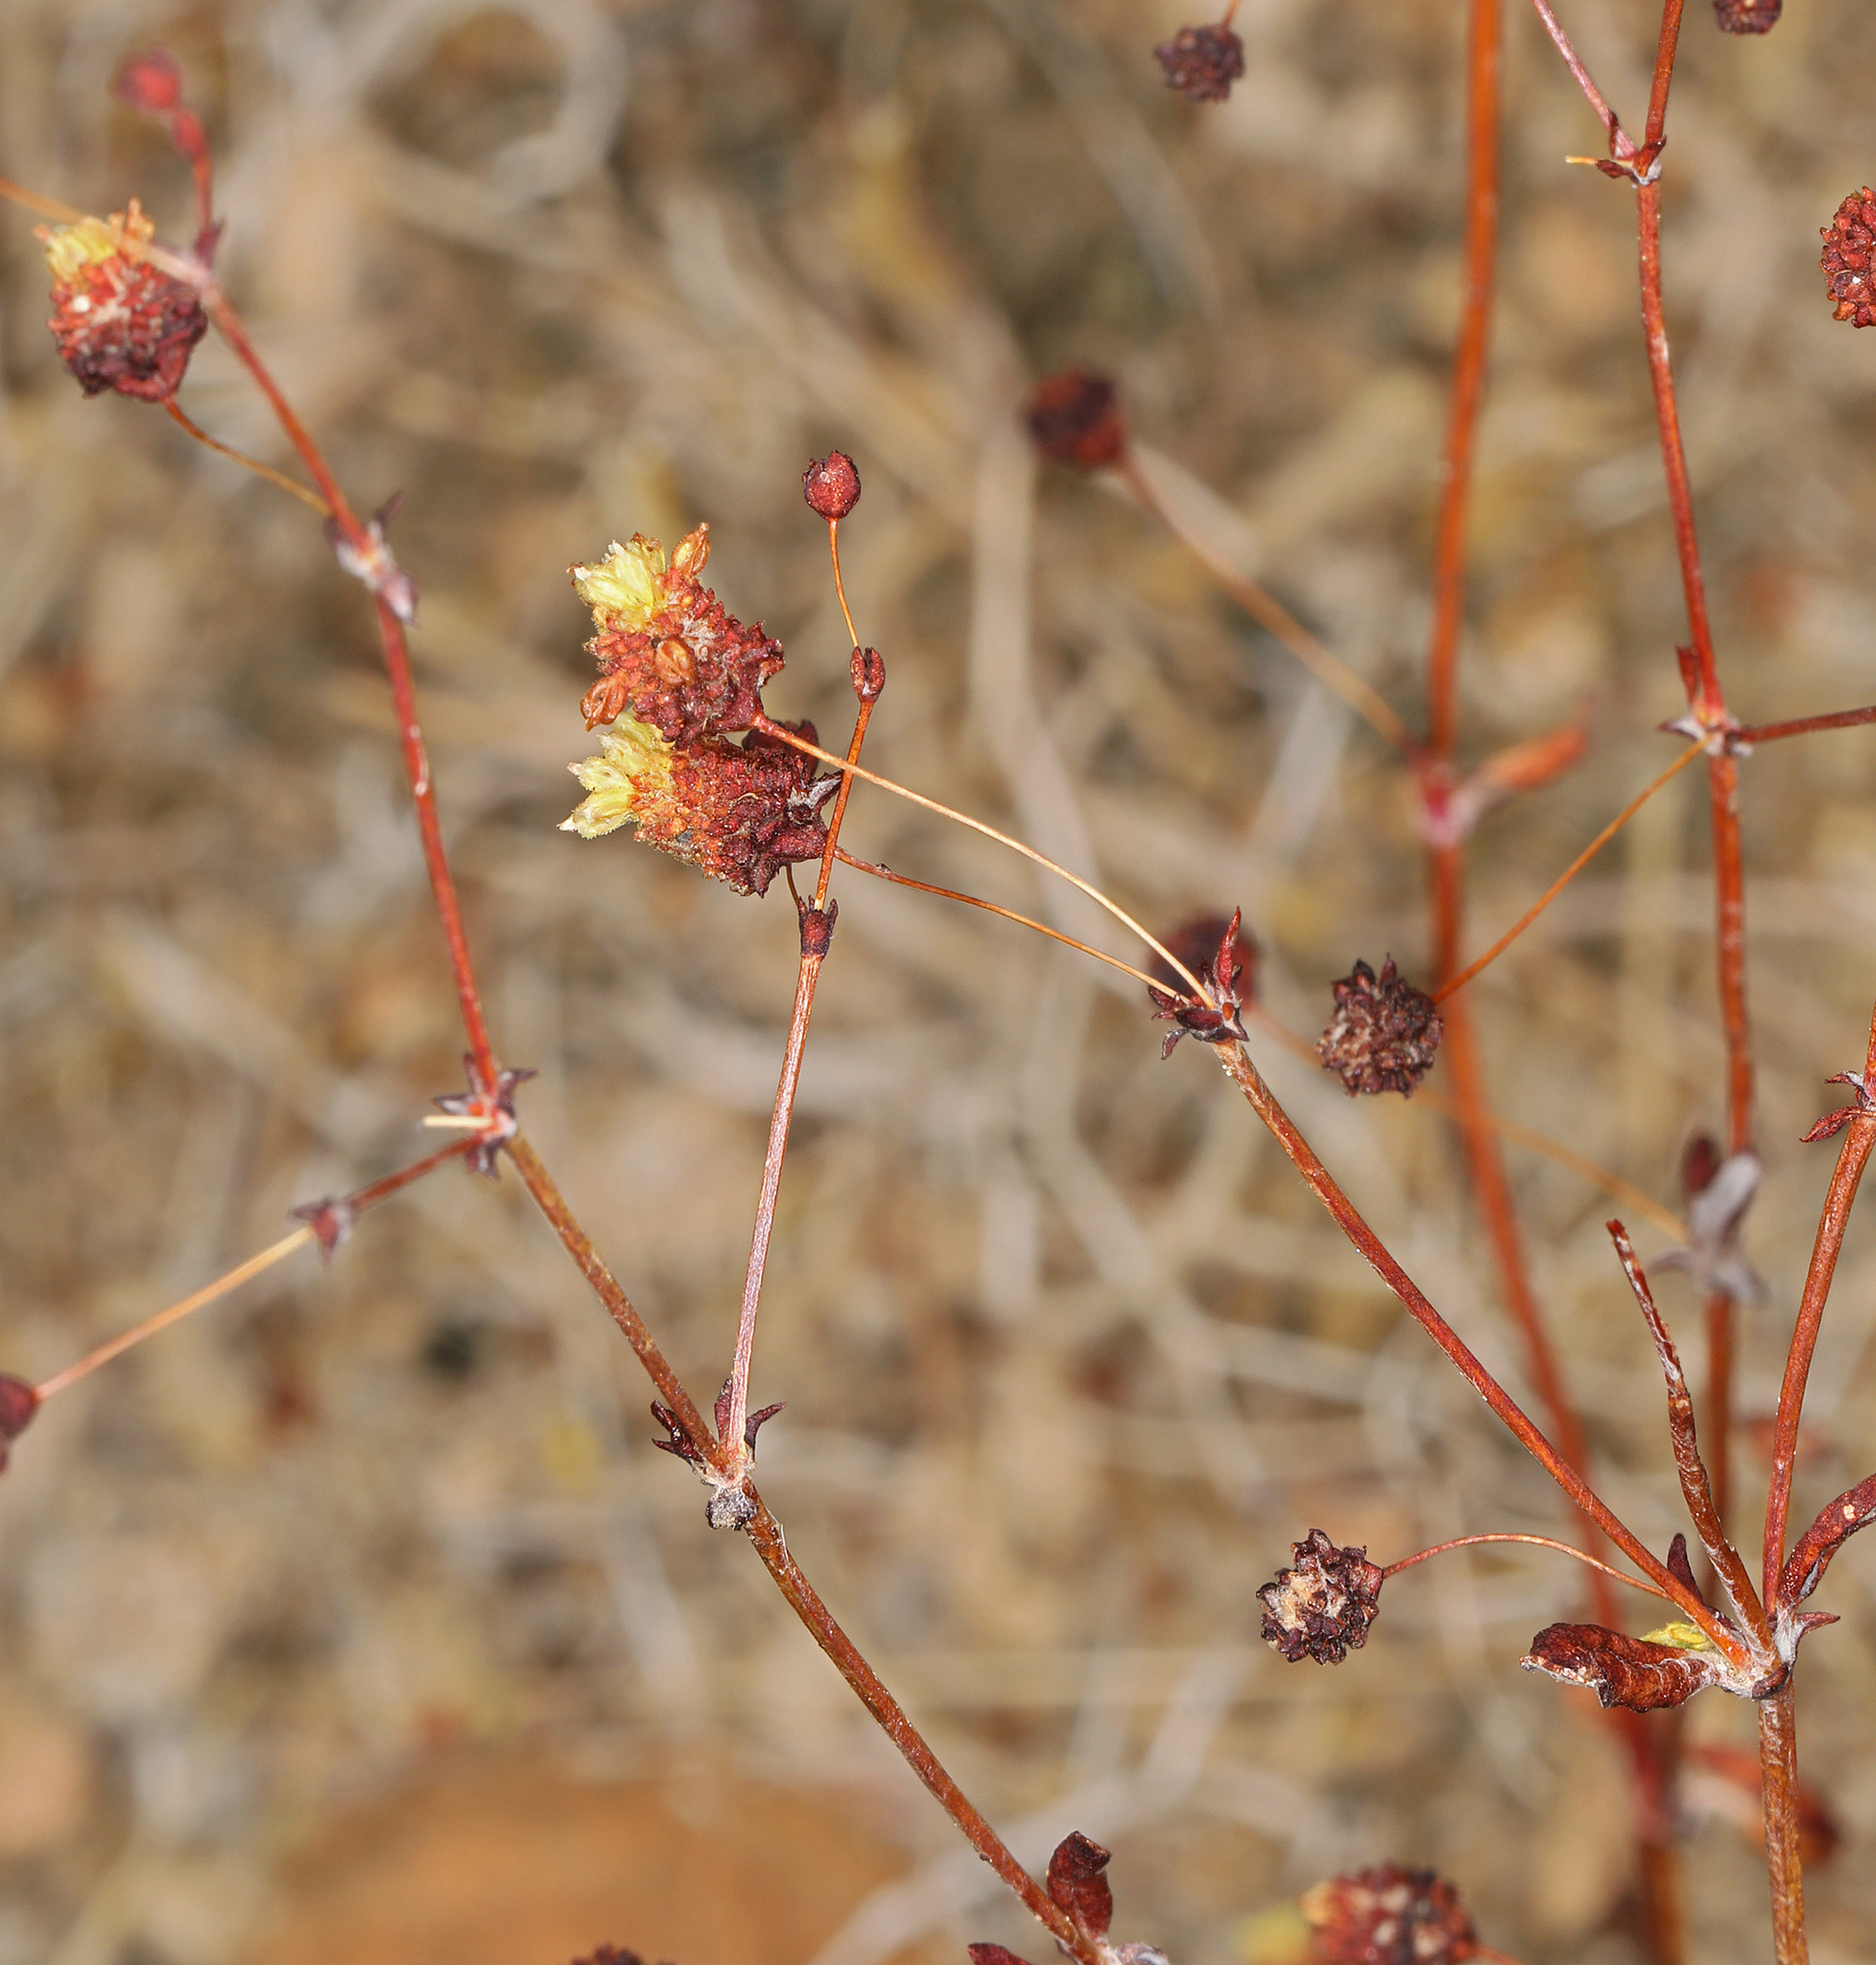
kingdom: Plantae
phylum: Tracheophyta
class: Magnoliopsida
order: Caryophyllales
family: Polygonaceae
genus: Eriogonum
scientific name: Eriogonum maculatum
